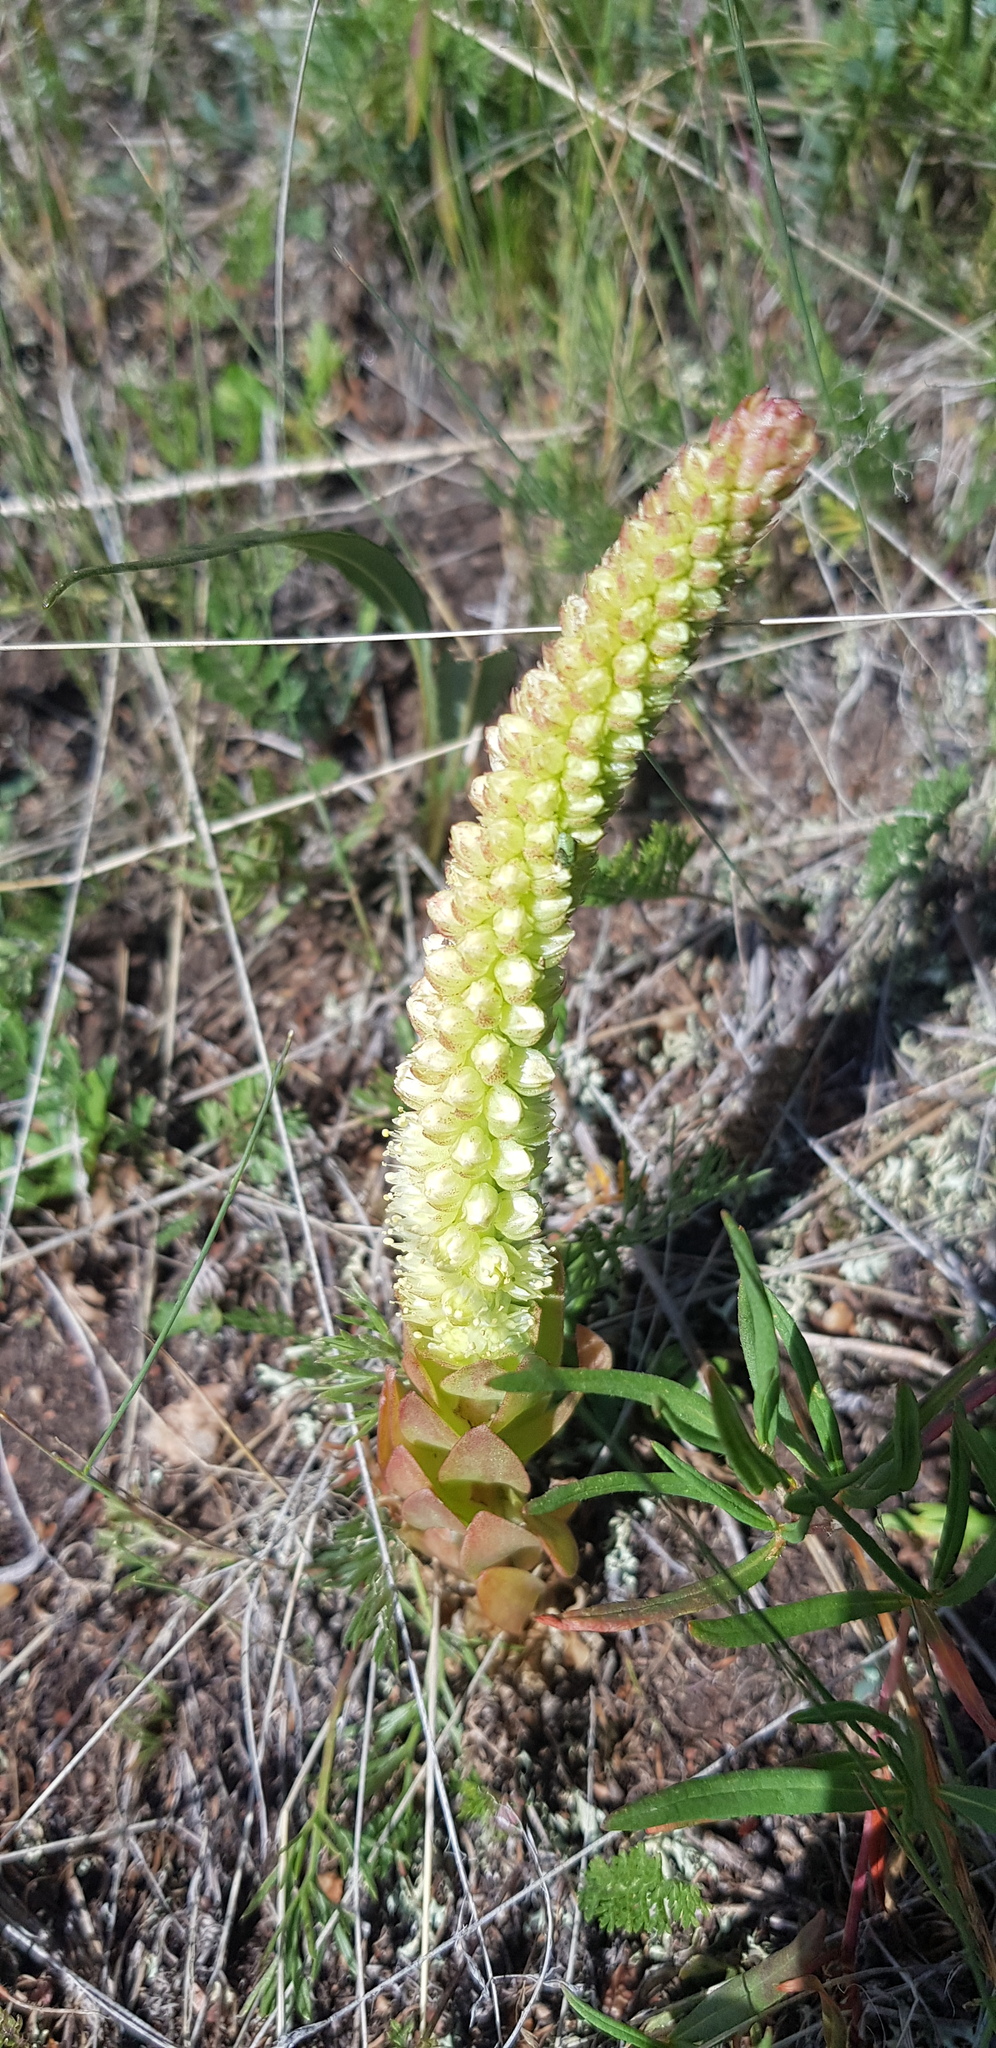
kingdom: Plantae
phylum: Tracheophyta
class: Magnoliopsida
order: Saxifragales
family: Crassulaceae
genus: Orostachys
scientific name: Orostachys malacophylla
